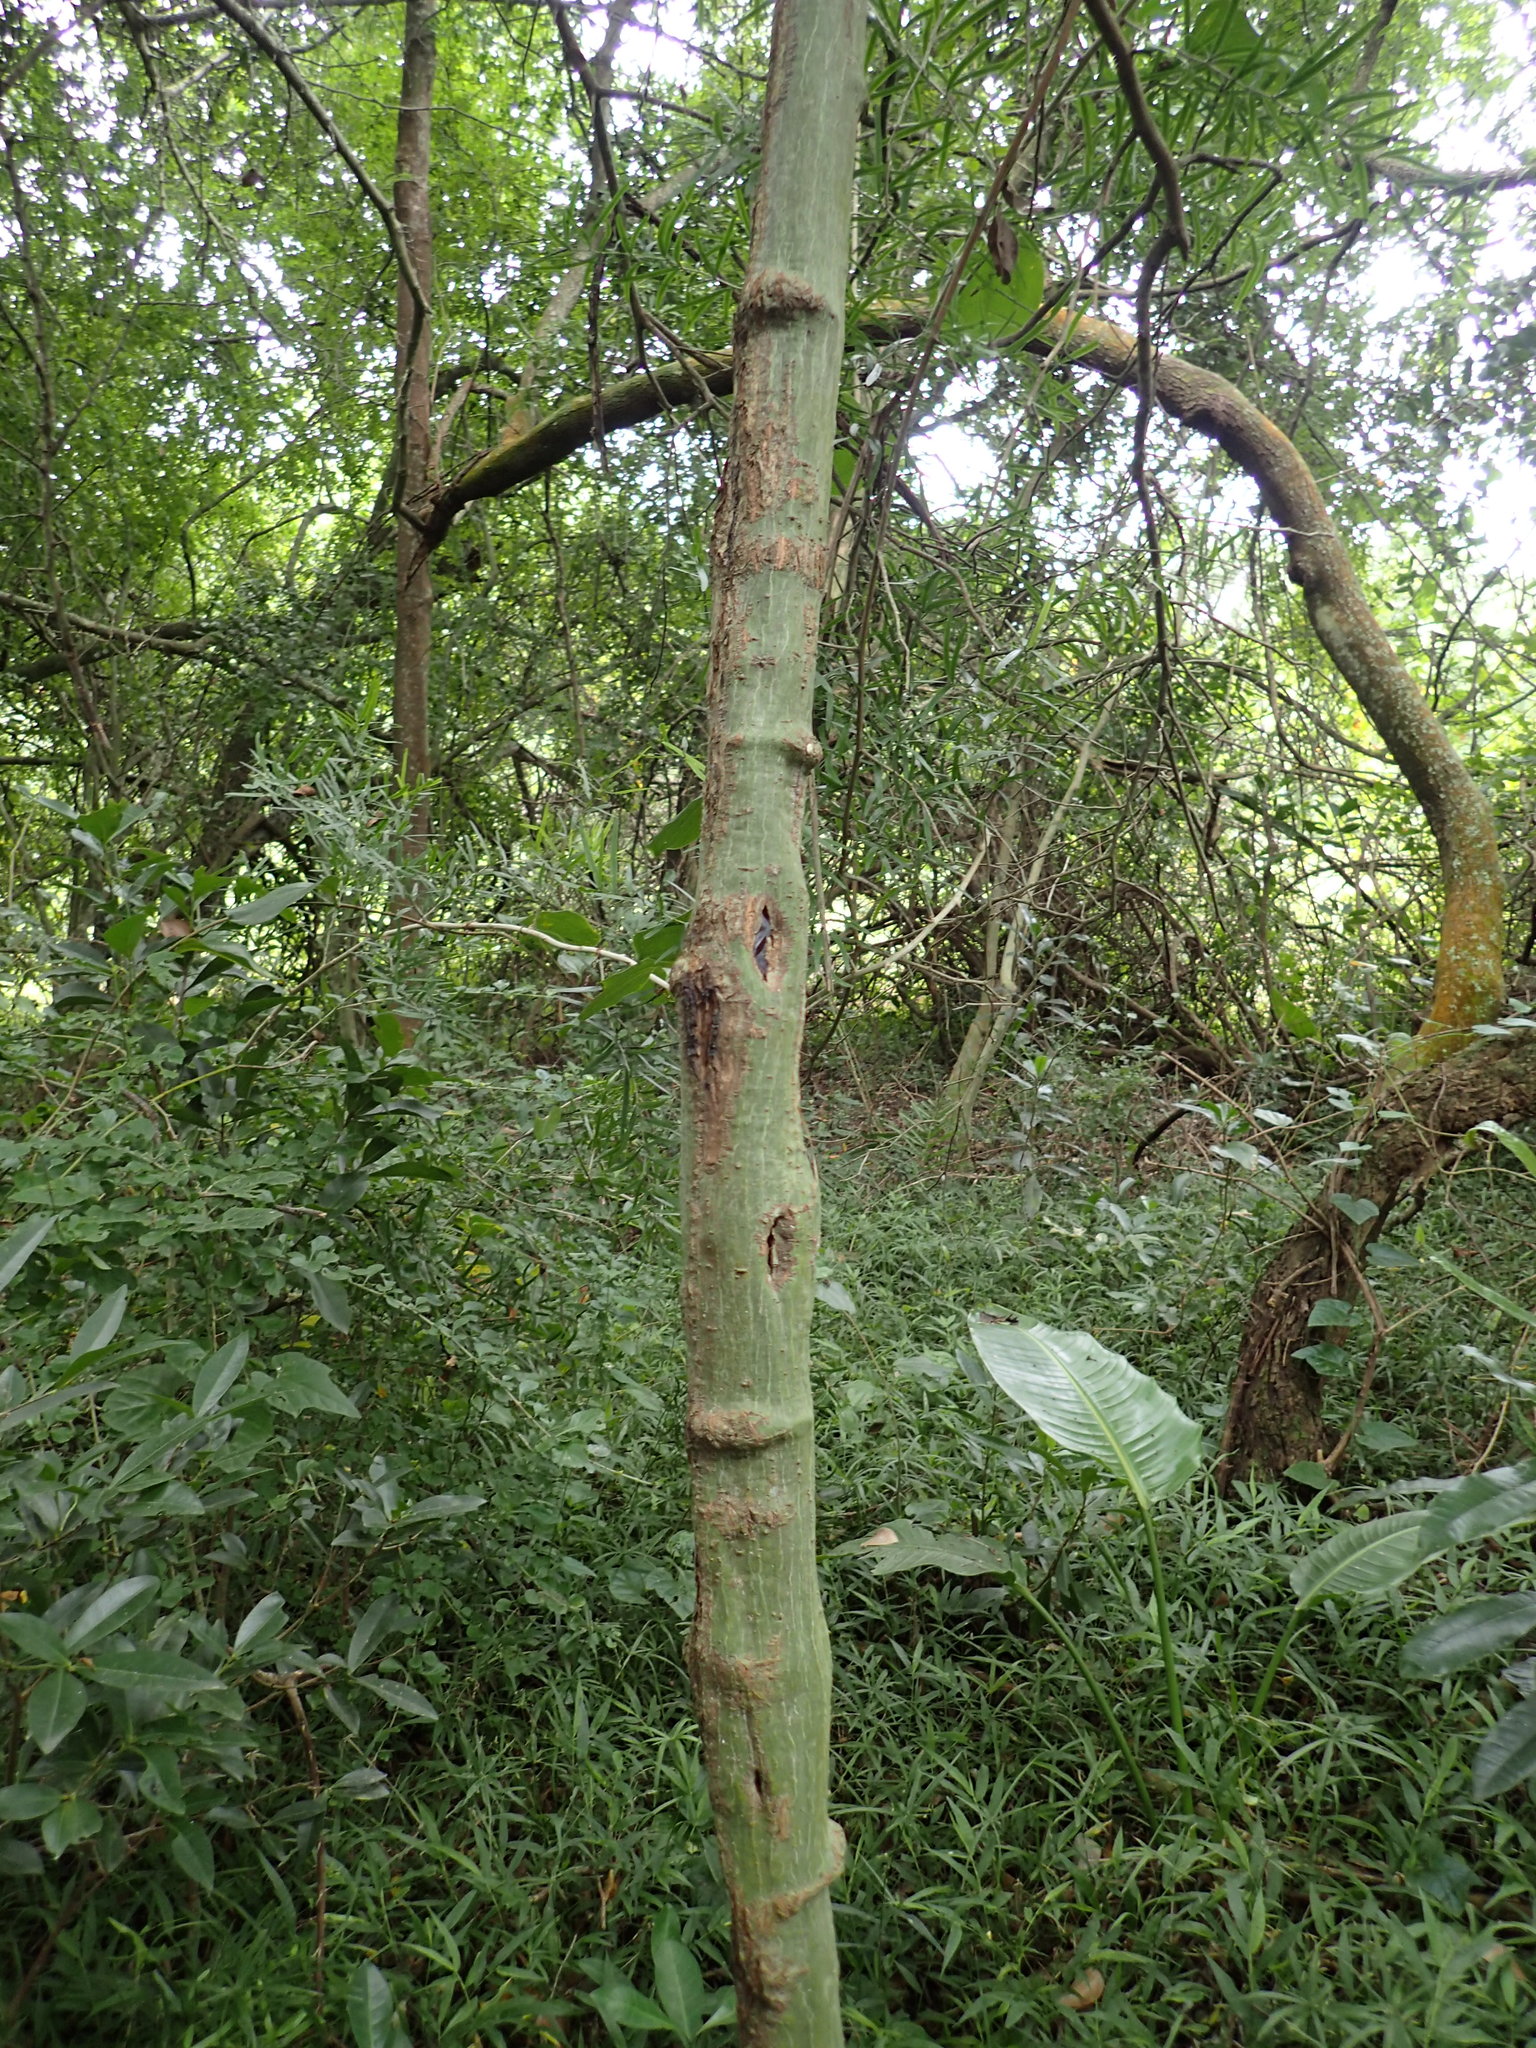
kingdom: Plantae
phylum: Tracheophyta
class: Magnoliopsida
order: Malpighiales
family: Passifloraceae
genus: Adenia
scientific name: Adenia cissampeloides
